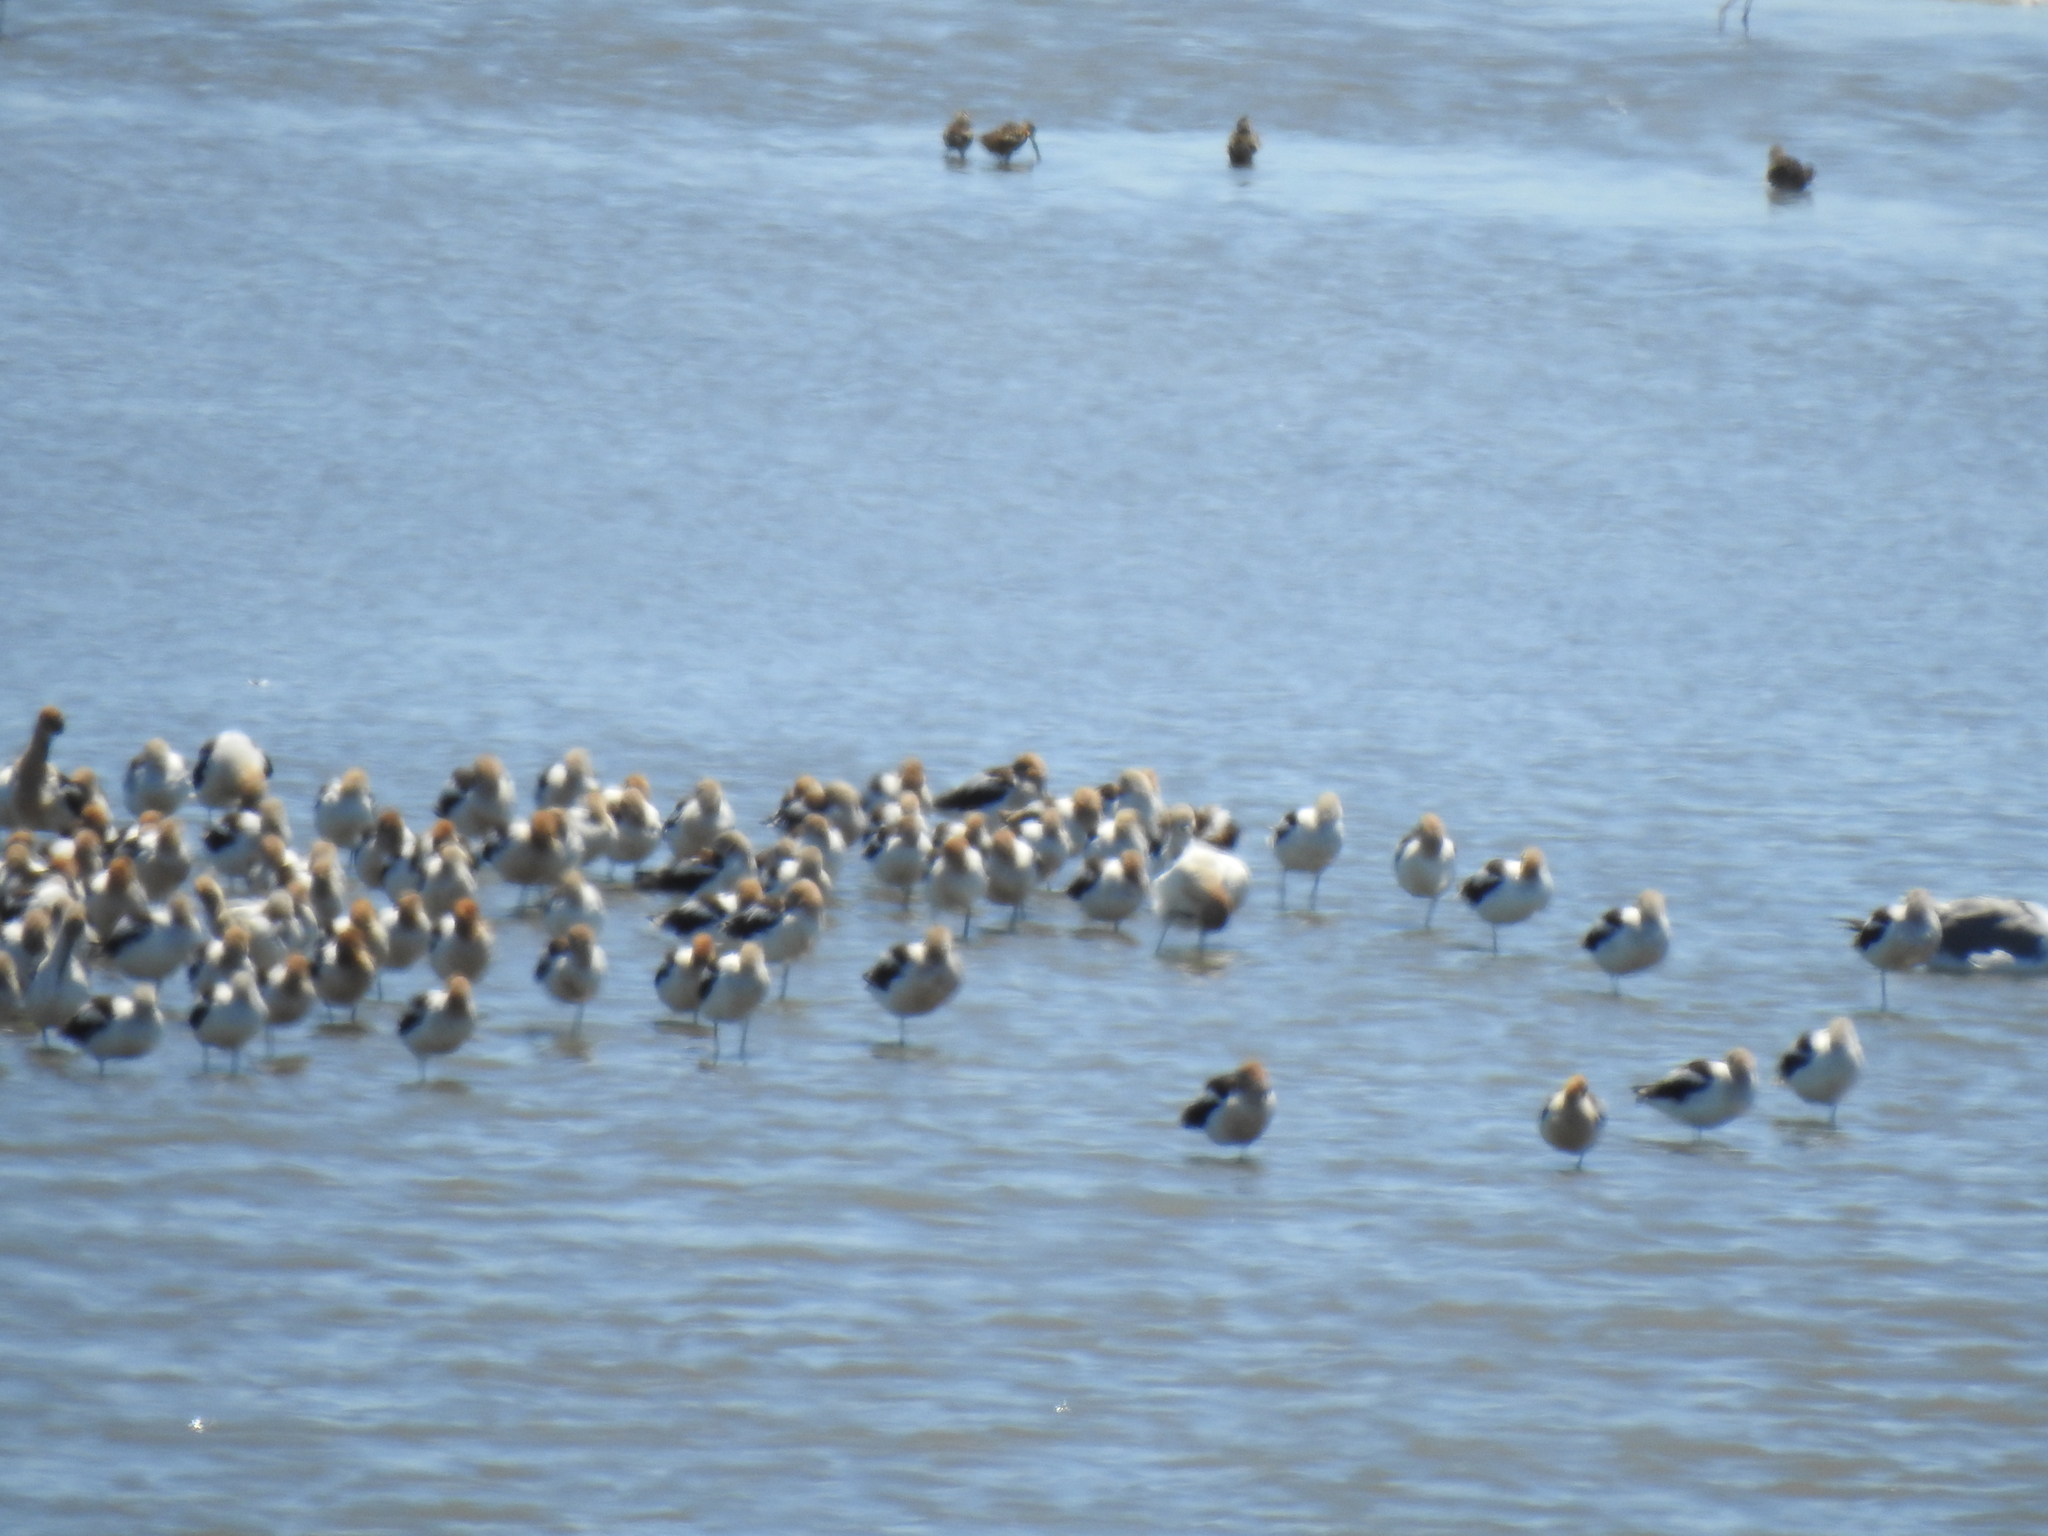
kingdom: Animalia
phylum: Chordata
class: Aves
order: Charadriiformes
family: Recurvirostridae
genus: Recurvirostra
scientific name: Recurvirostra americana
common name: American avocet
